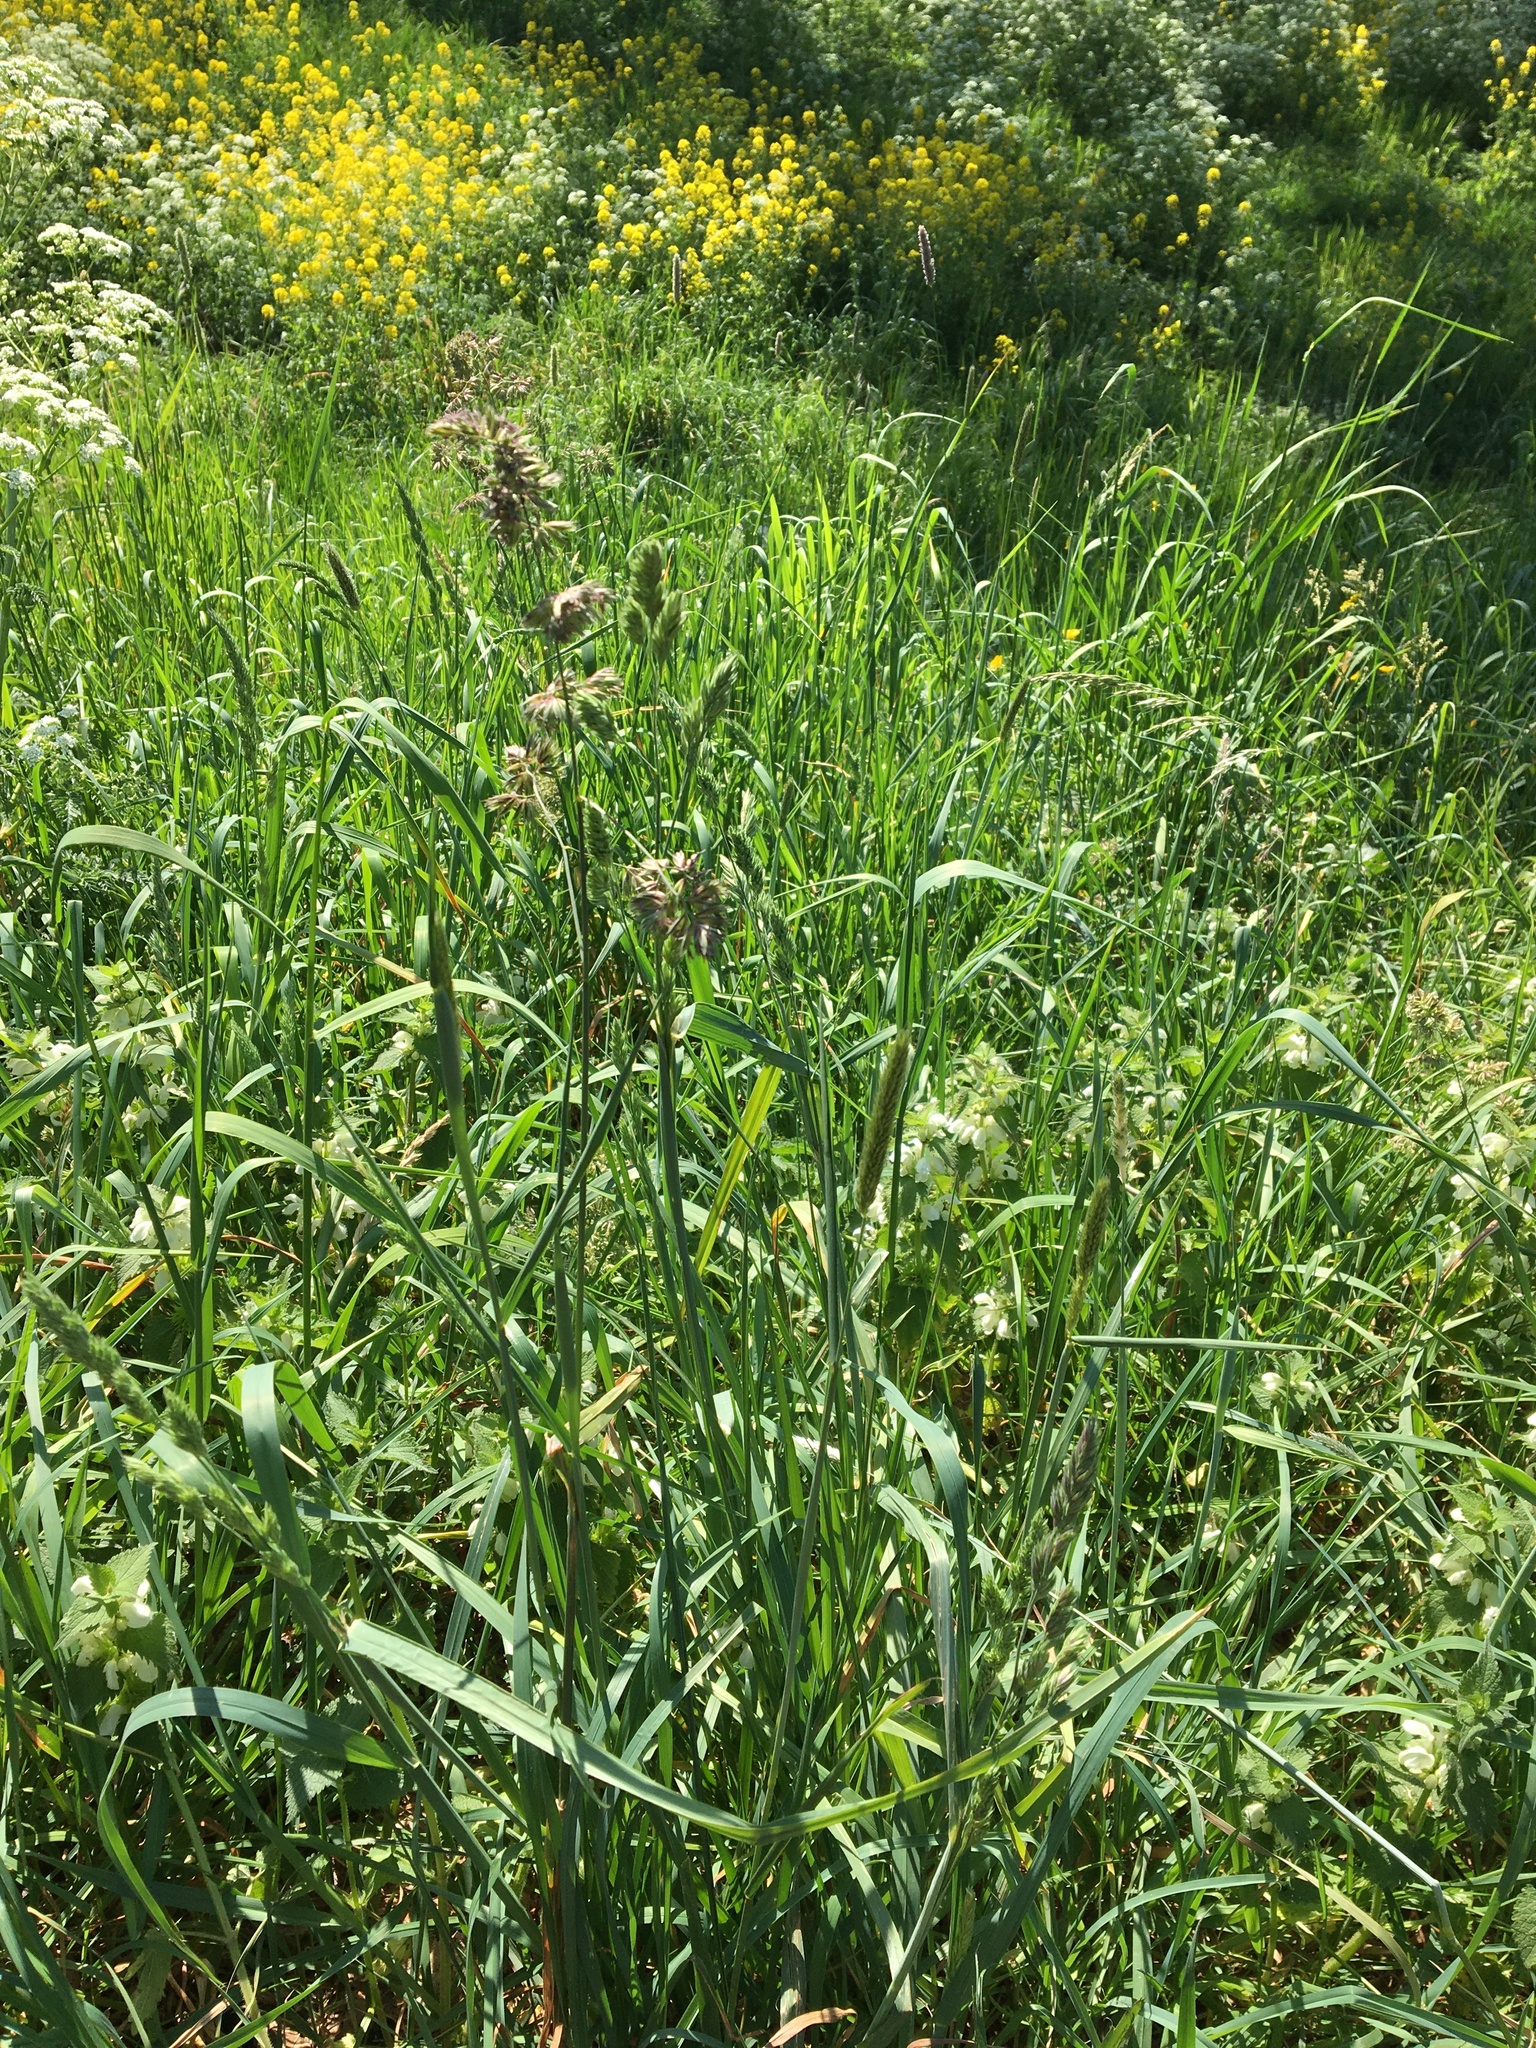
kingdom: Plantae
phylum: Tracheophyta
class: Liliopsida
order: Poales
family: Poaceae
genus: Dactylis
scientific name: Dactylis glomerata
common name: Orchardgrass
